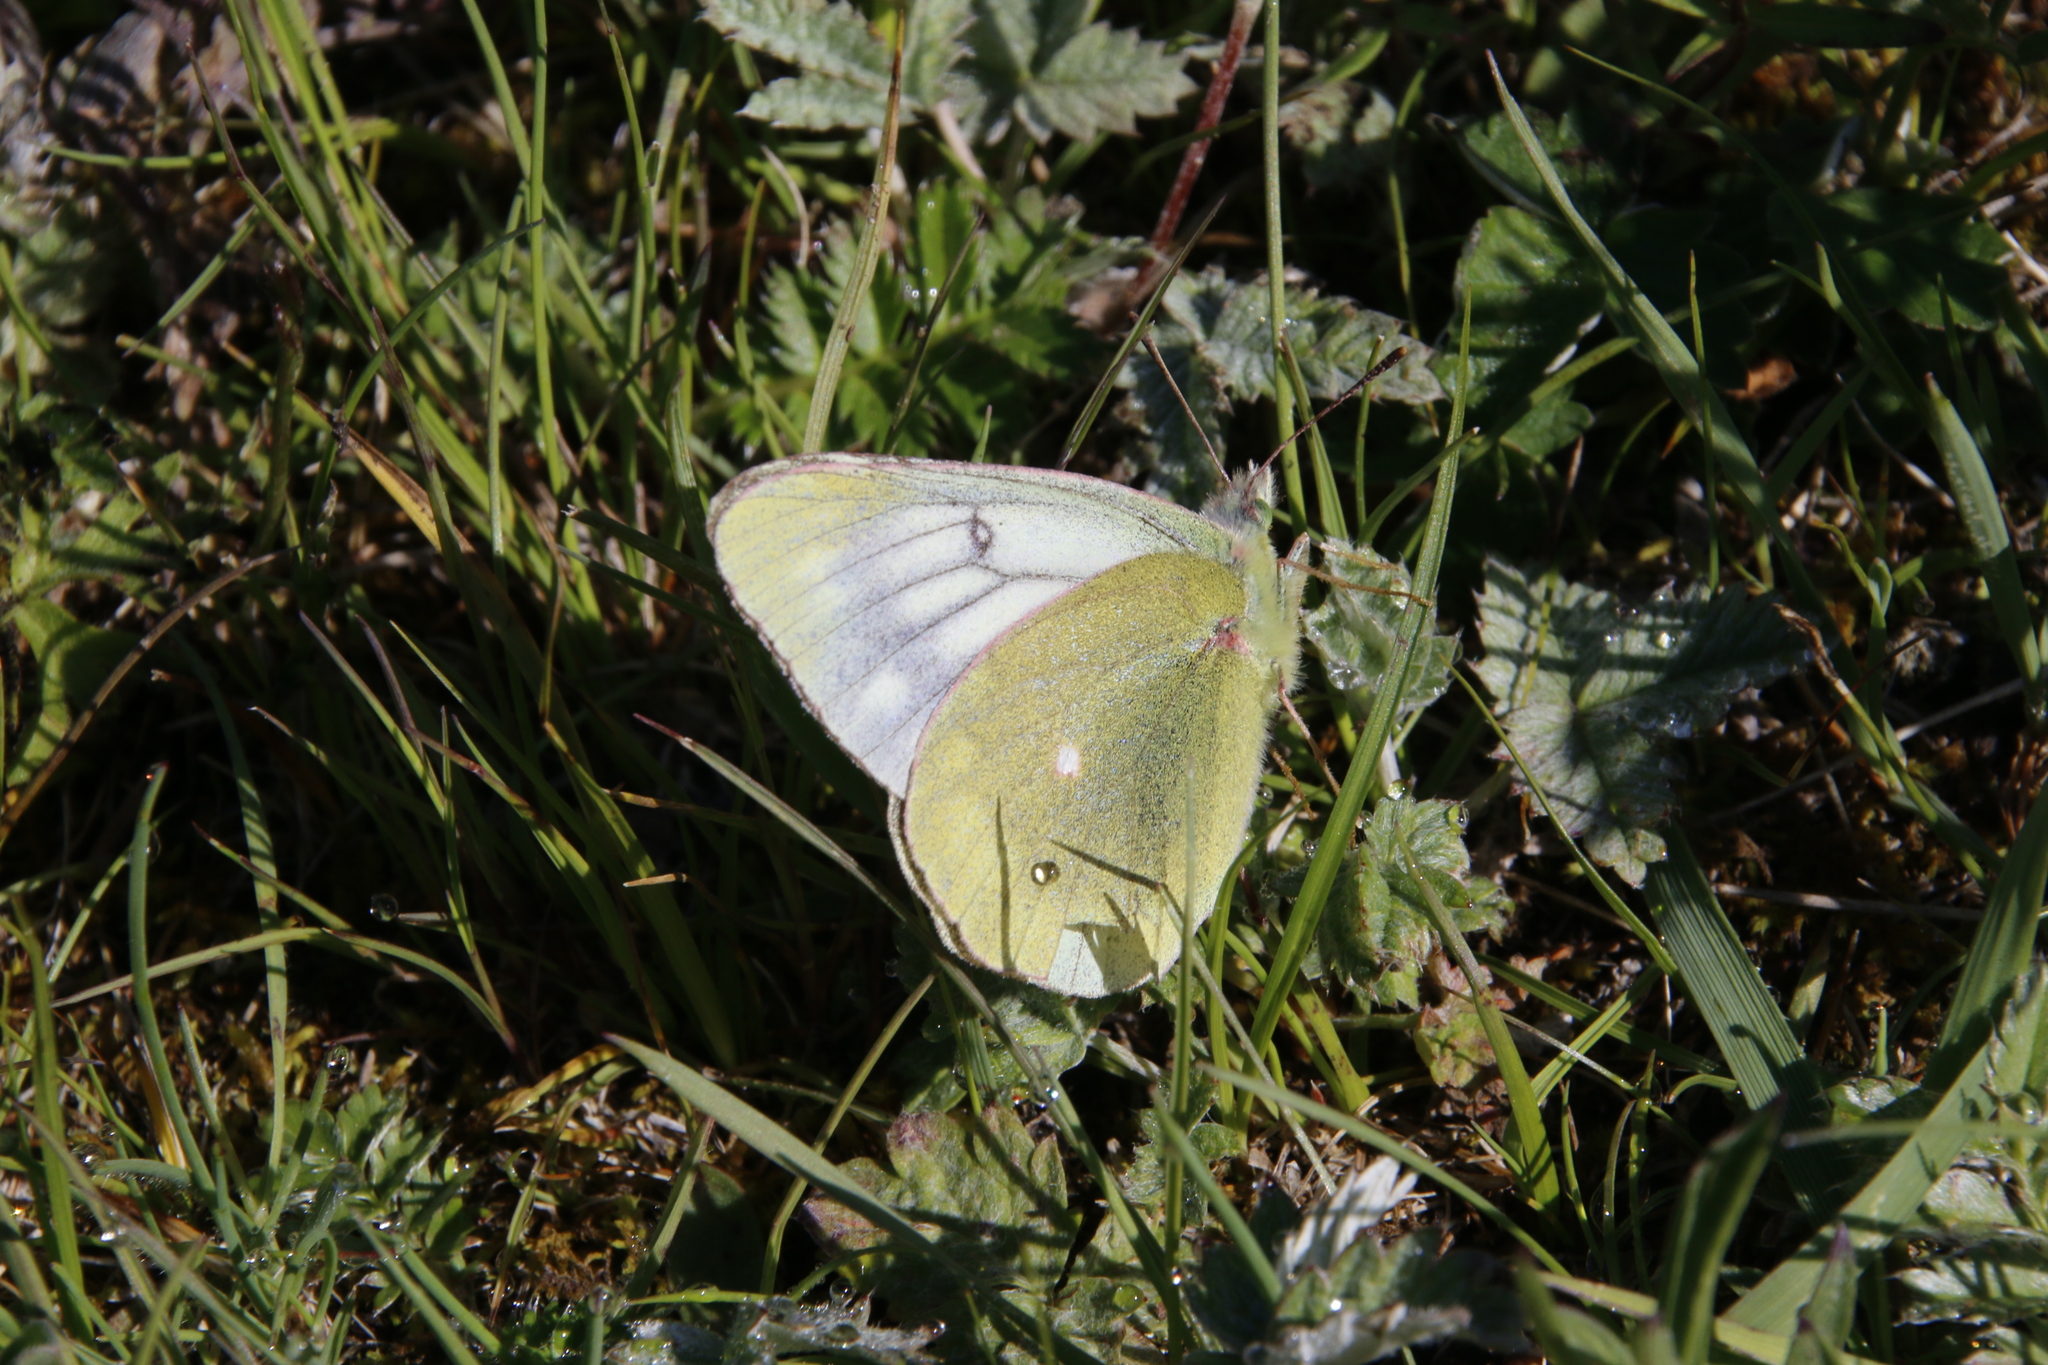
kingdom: Animalia
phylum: Arthropoda
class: Insecta
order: Lepidoptera
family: Pieridae
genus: Colias
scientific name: Colias tyche
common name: Pale arctic clouded yellow
